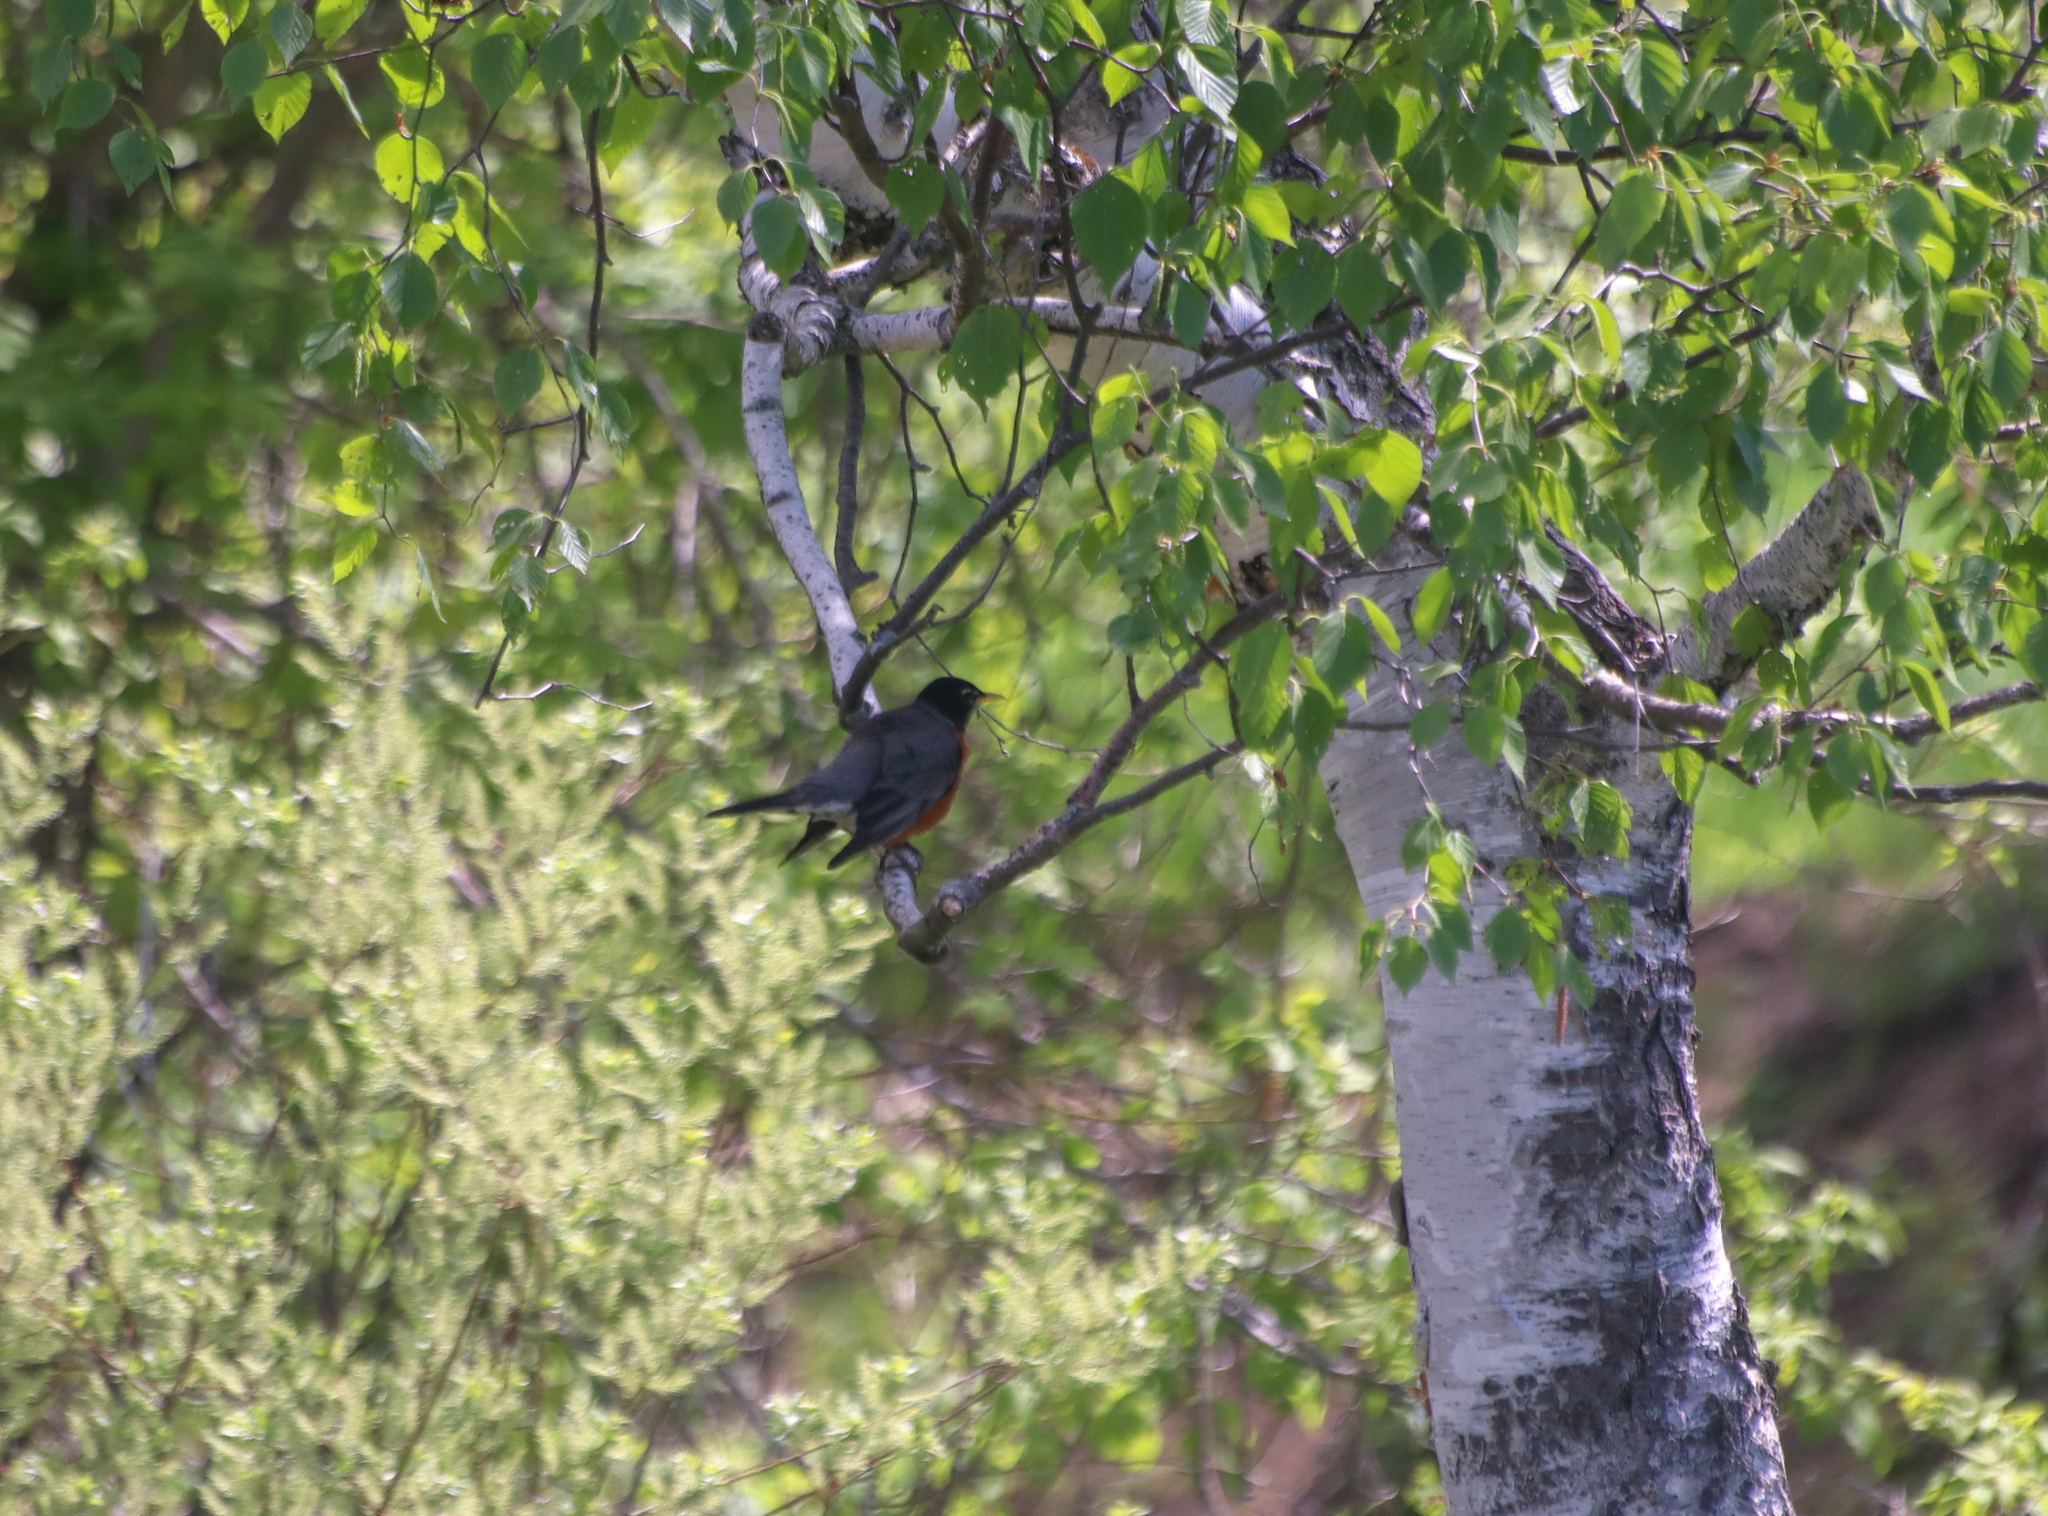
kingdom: Animalia
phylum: Chordata
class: Aves
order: Passeriformes
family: Turdidae
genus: Turdus
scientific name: Turdus migratorius
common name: American robin
